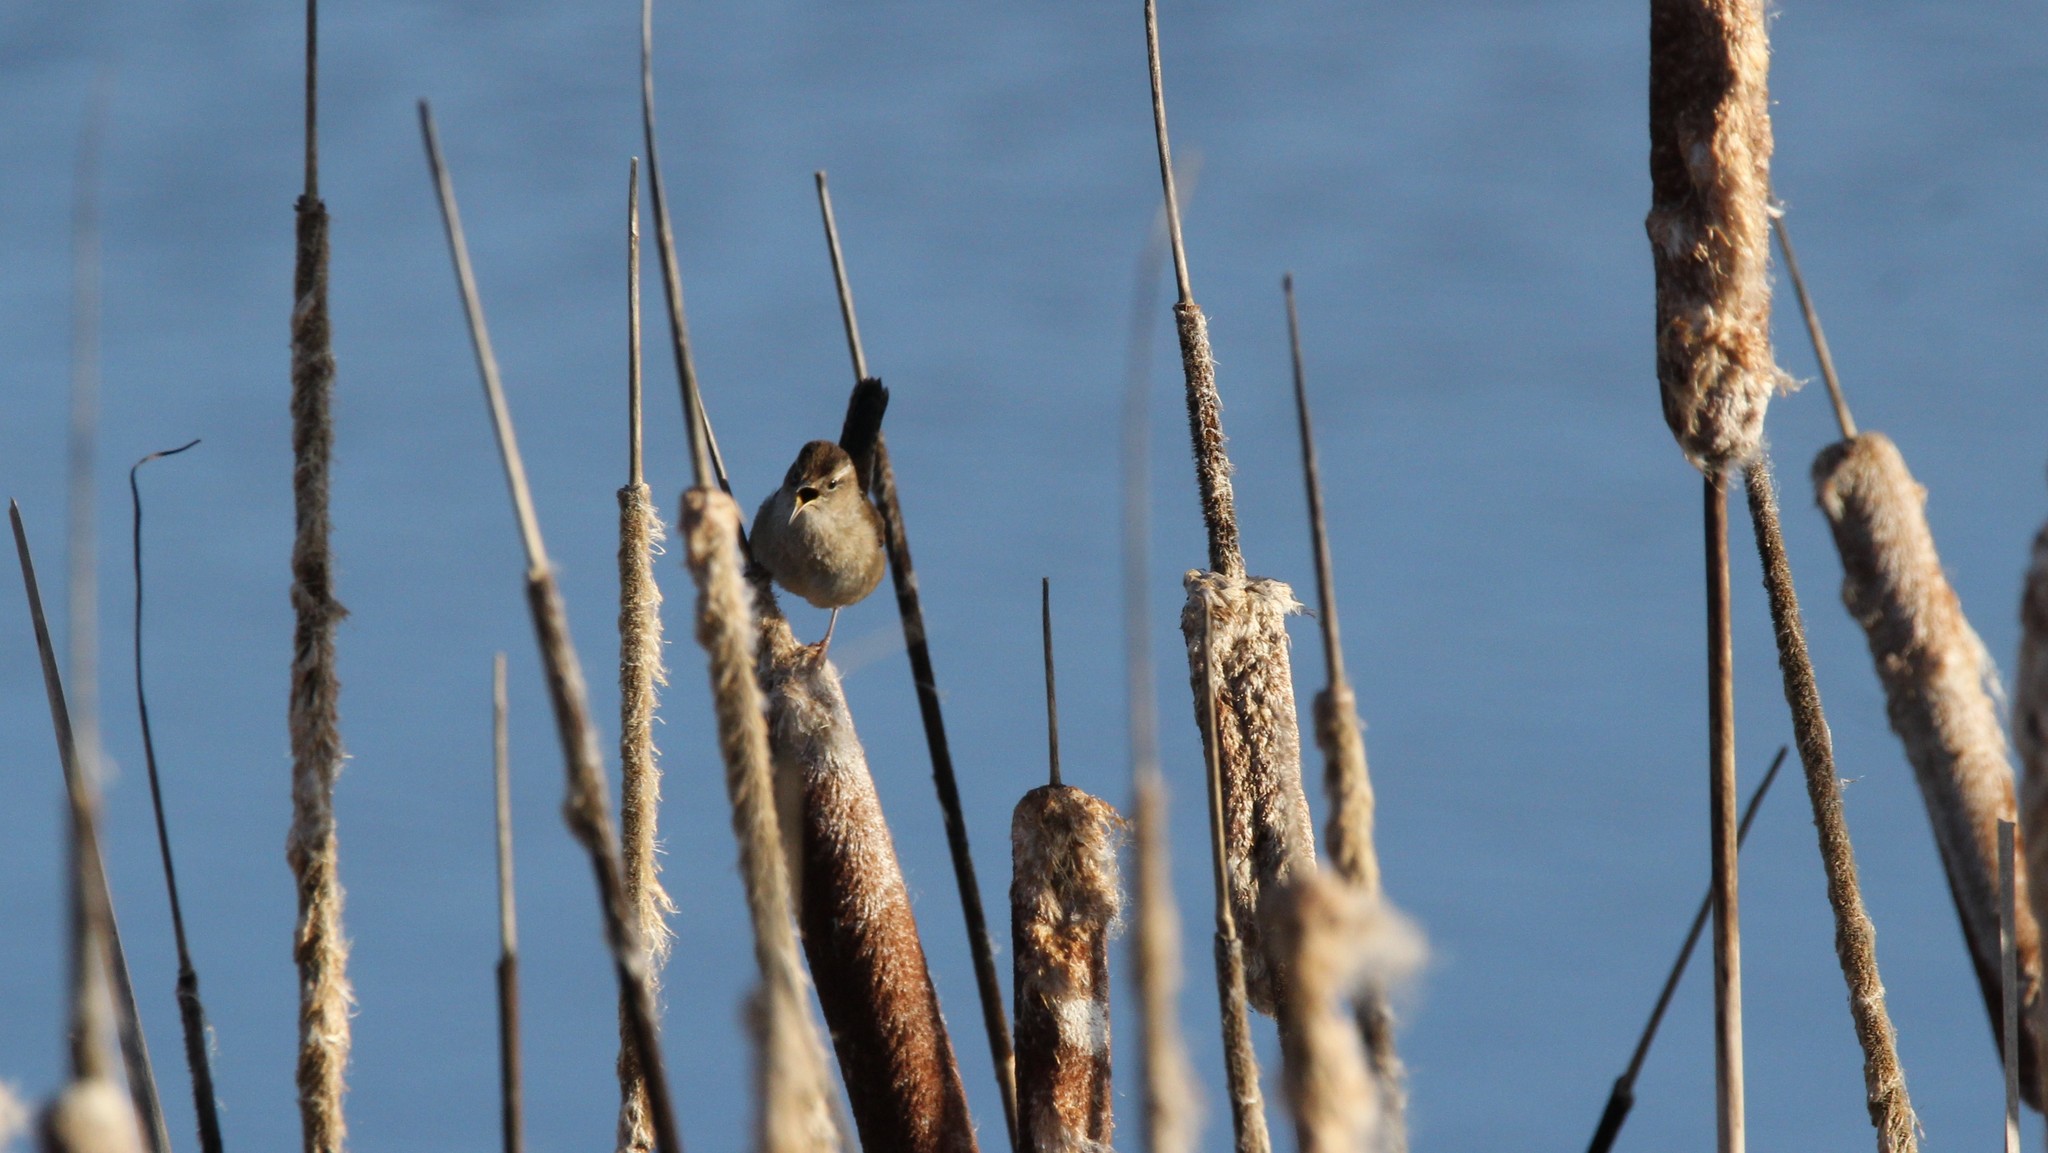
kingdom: Animalia
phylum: Chordata
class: Aves
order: Passeriformes
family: Troglodytidae
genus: Cistothorus
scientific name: Cistothorus palustris
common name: Marsh wren
